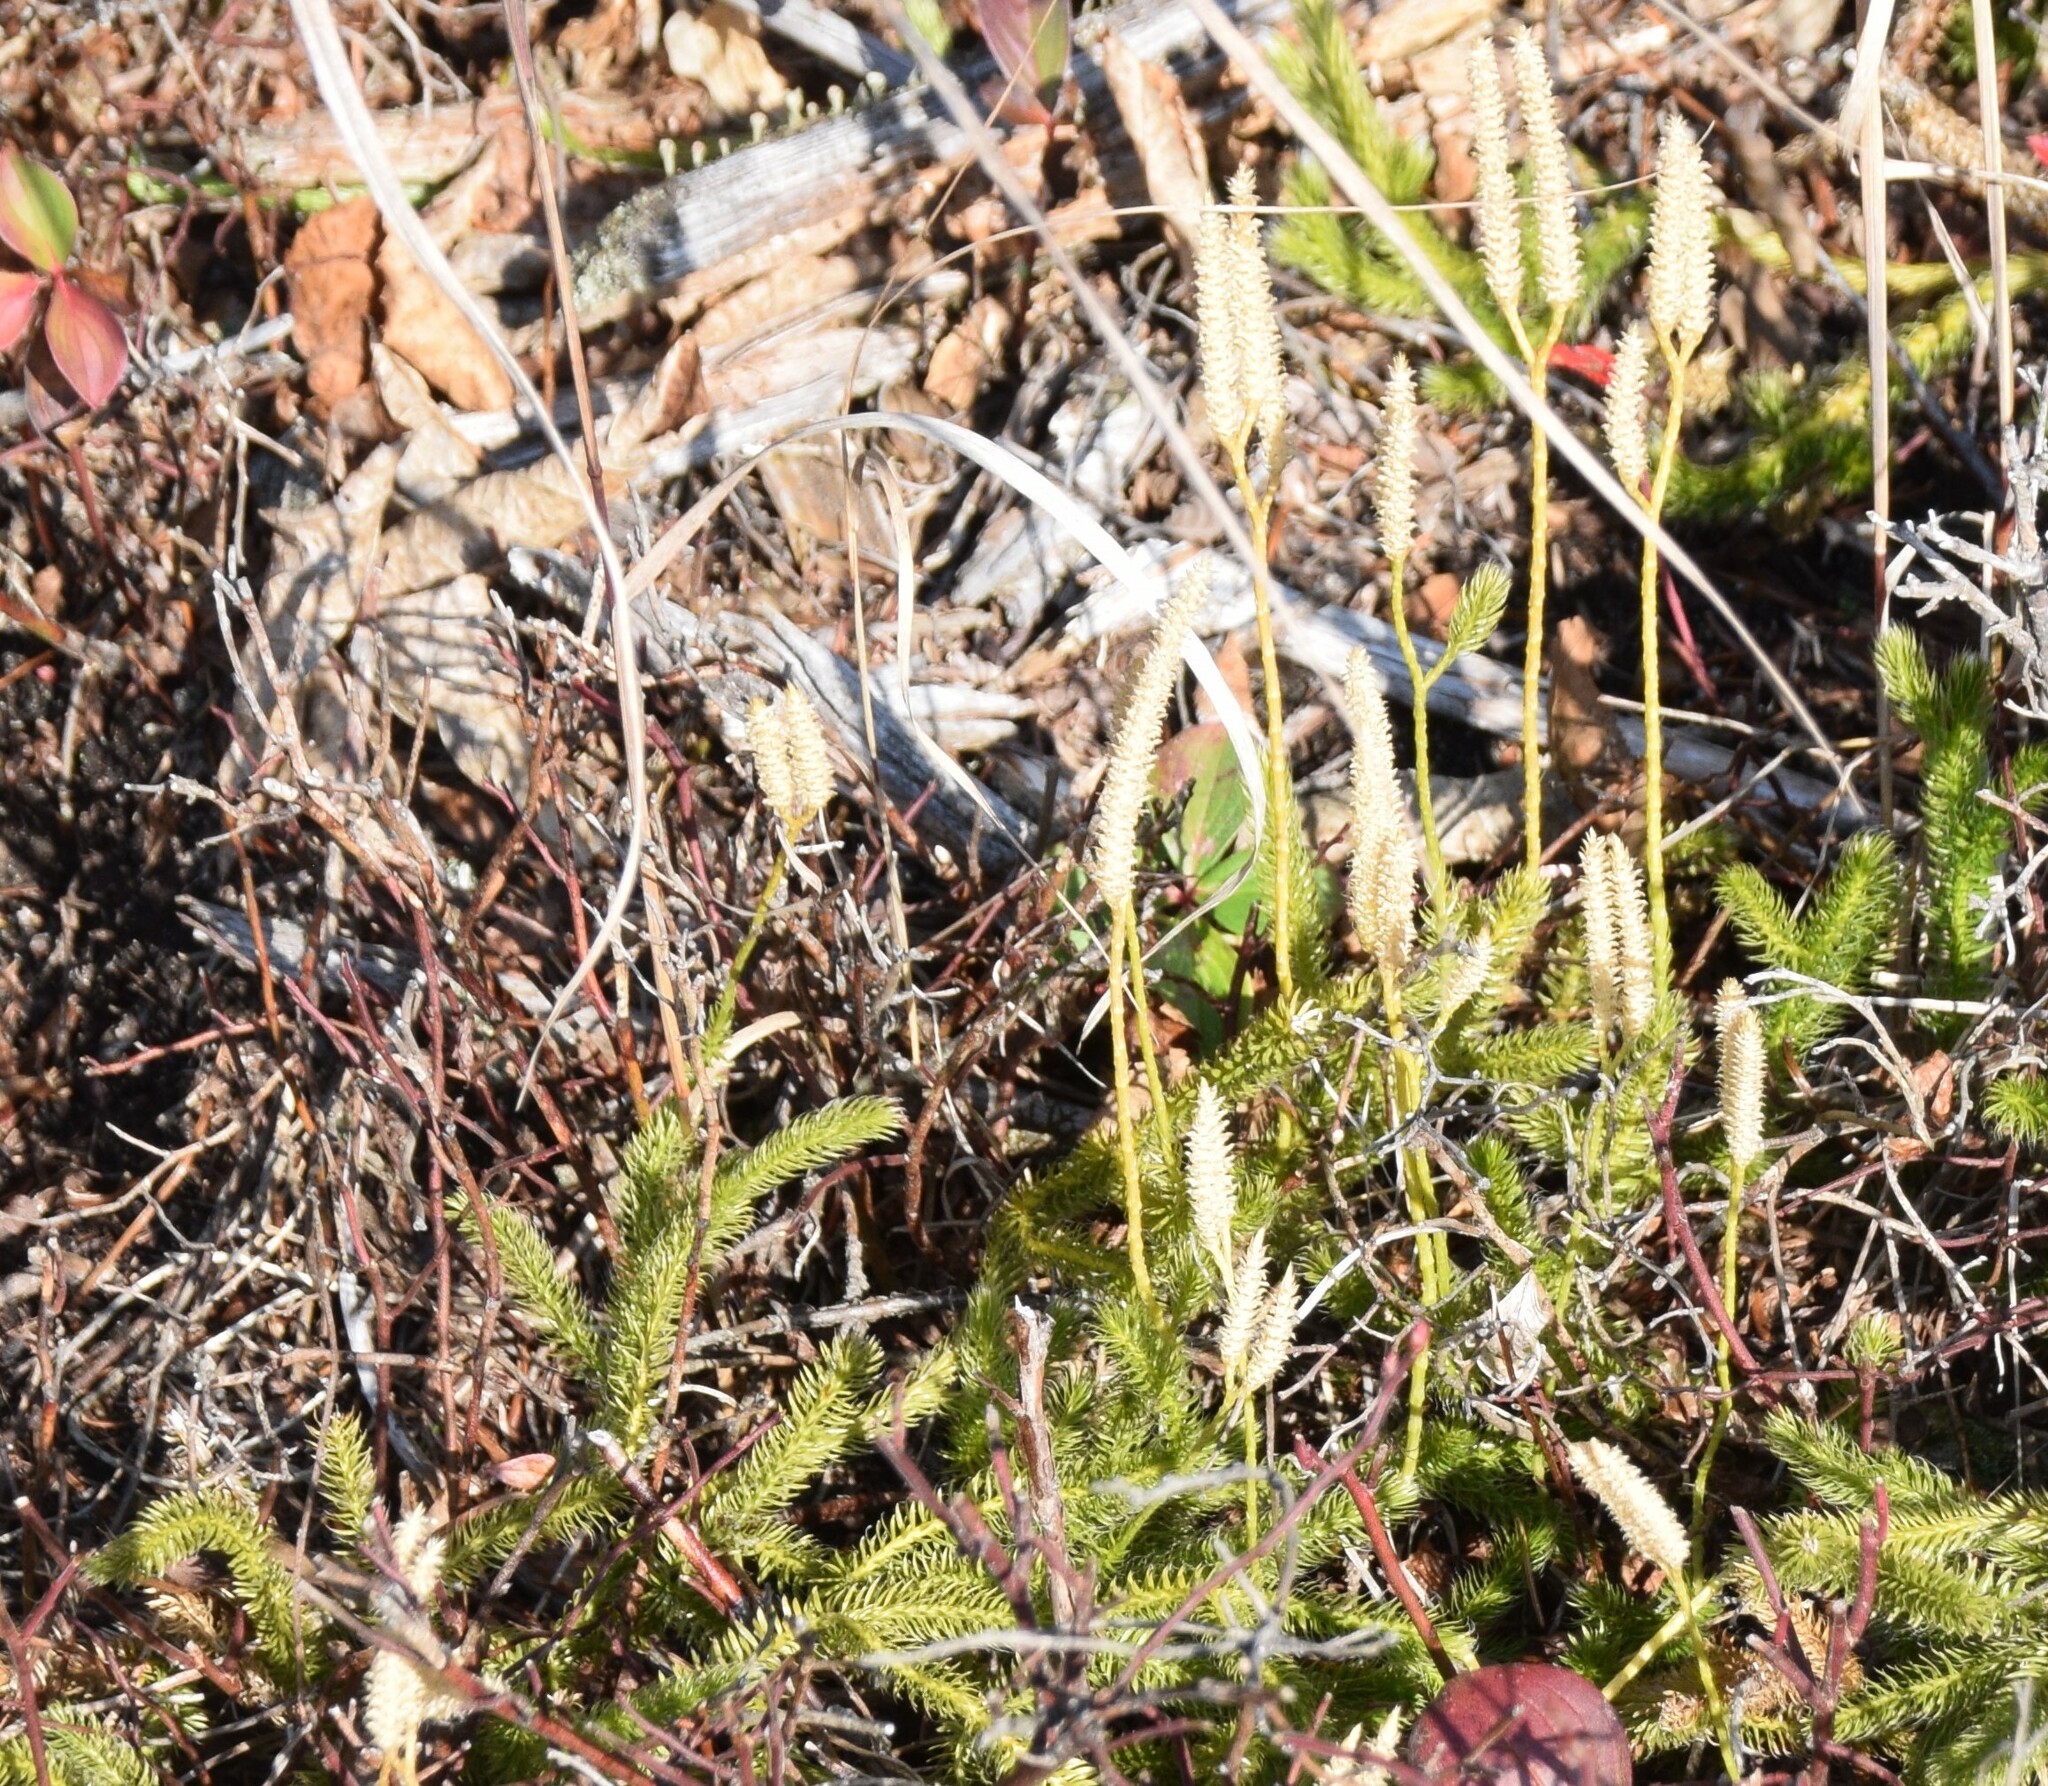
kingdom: Plantae
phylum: Tracheophyta
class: Lycopodiopsida
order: Lycopodiales
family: Lycopodiaceae
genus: Lycopodium
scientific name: Lycopodium clavatum
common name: Stag's-horn clubmoss
